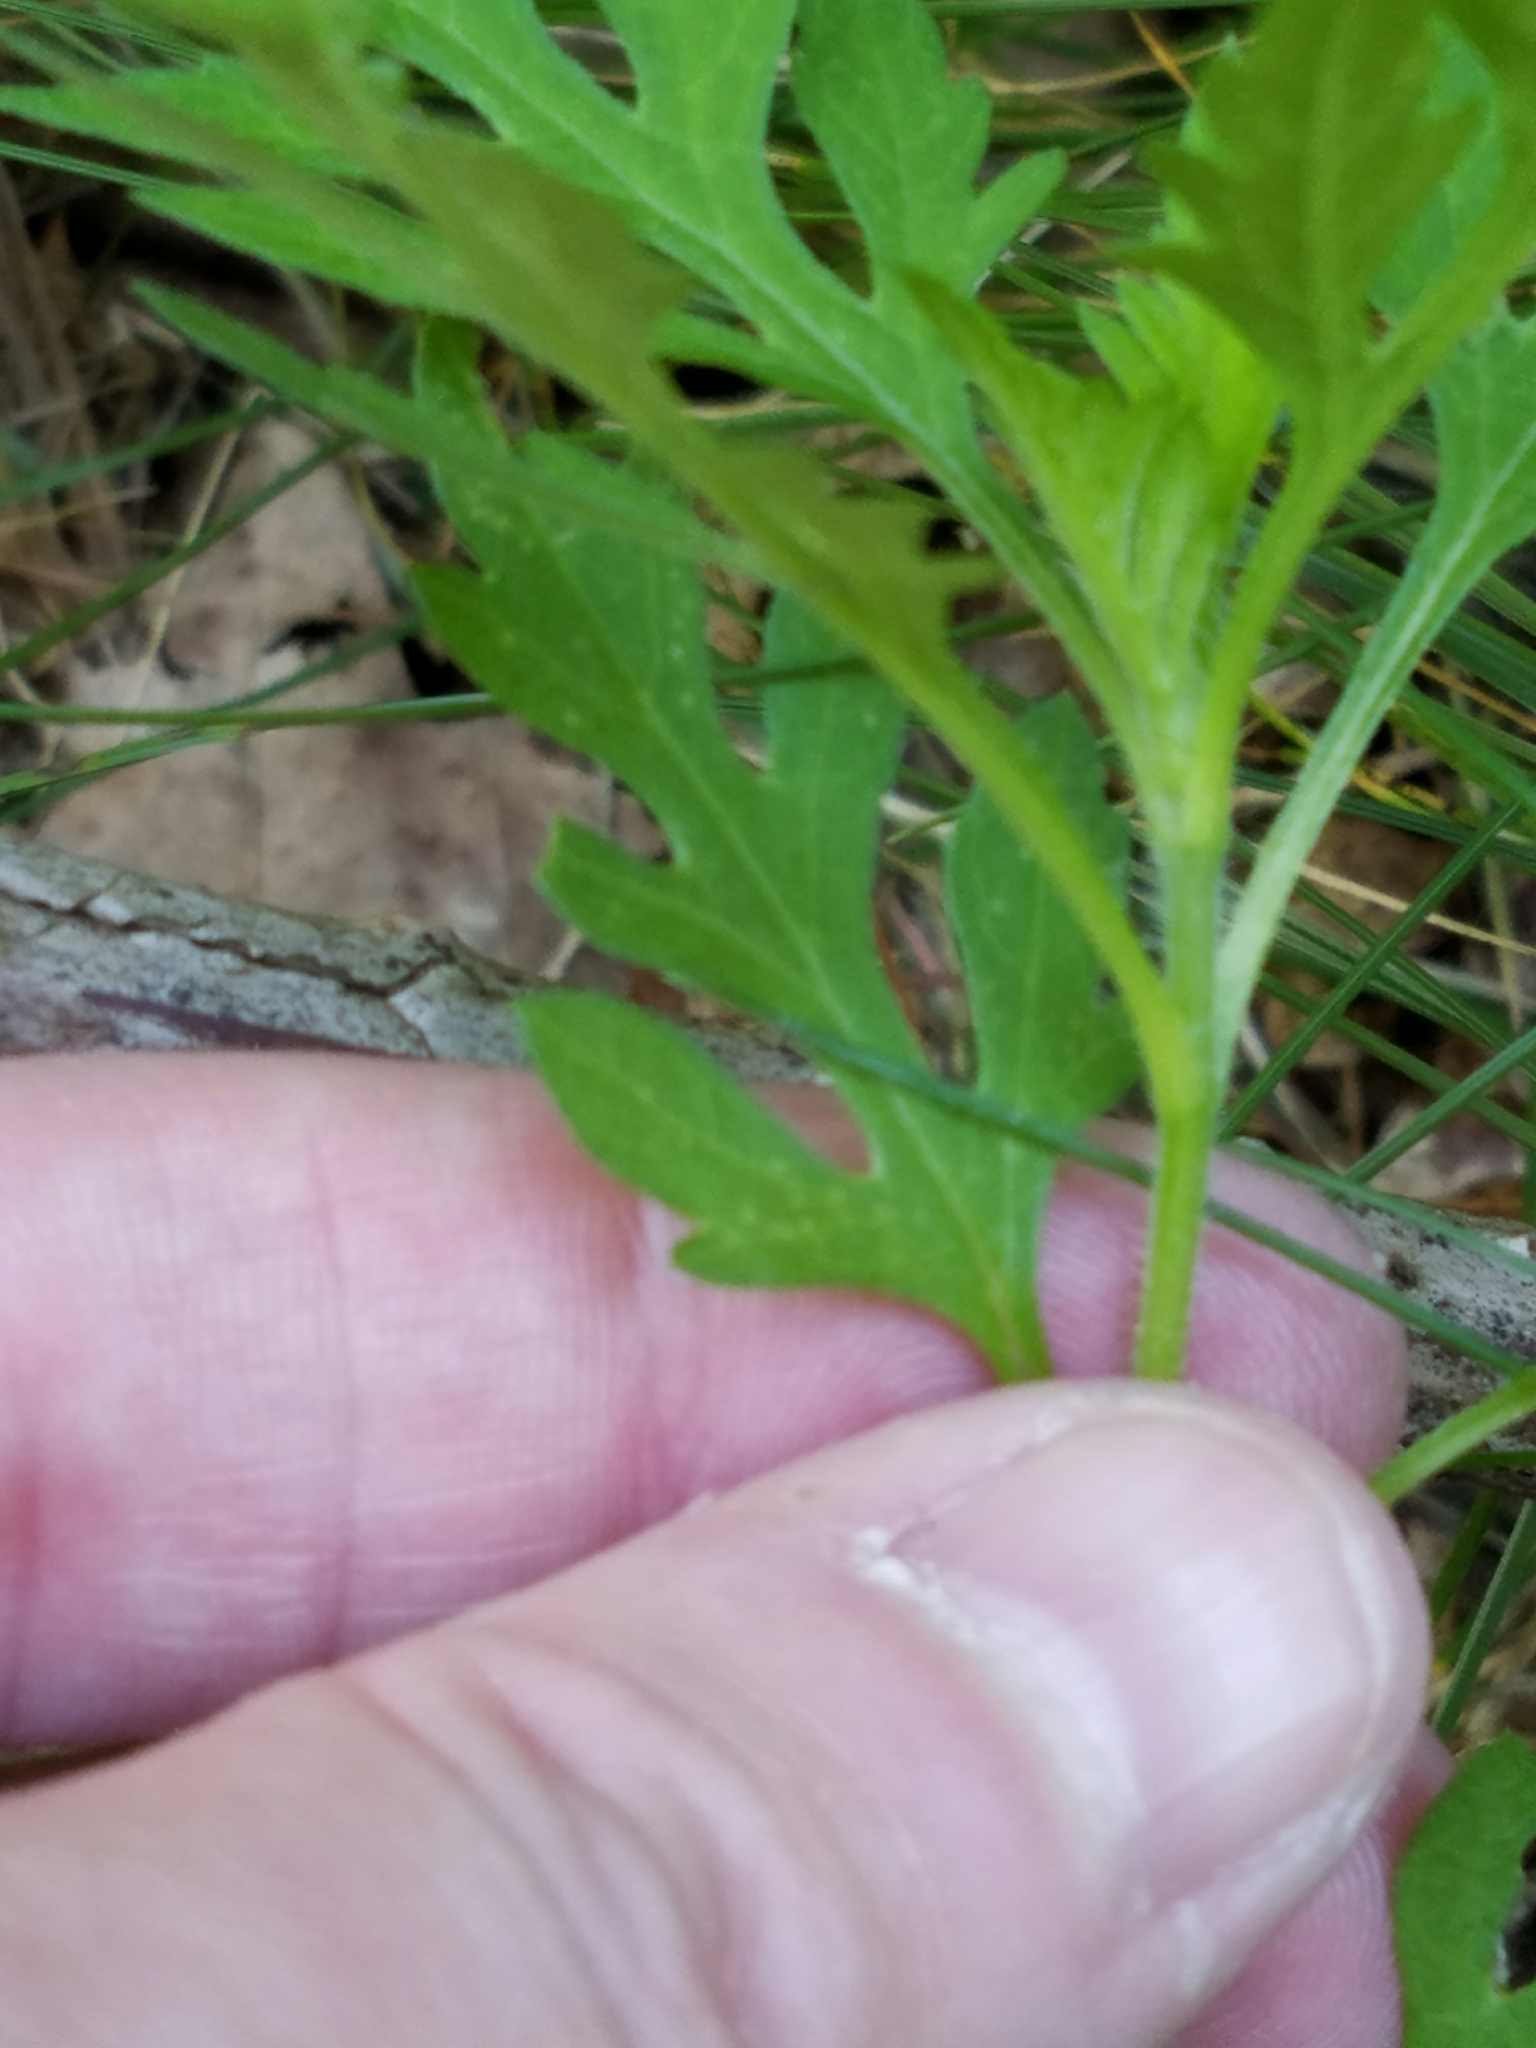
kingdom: Plantae
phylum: Tracheophyta
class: Magnoliopsida
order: Asterales
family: Asteraceae
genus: Ambrosia
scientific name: Ambrosia artemisiifolia
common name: Annual ragweed
